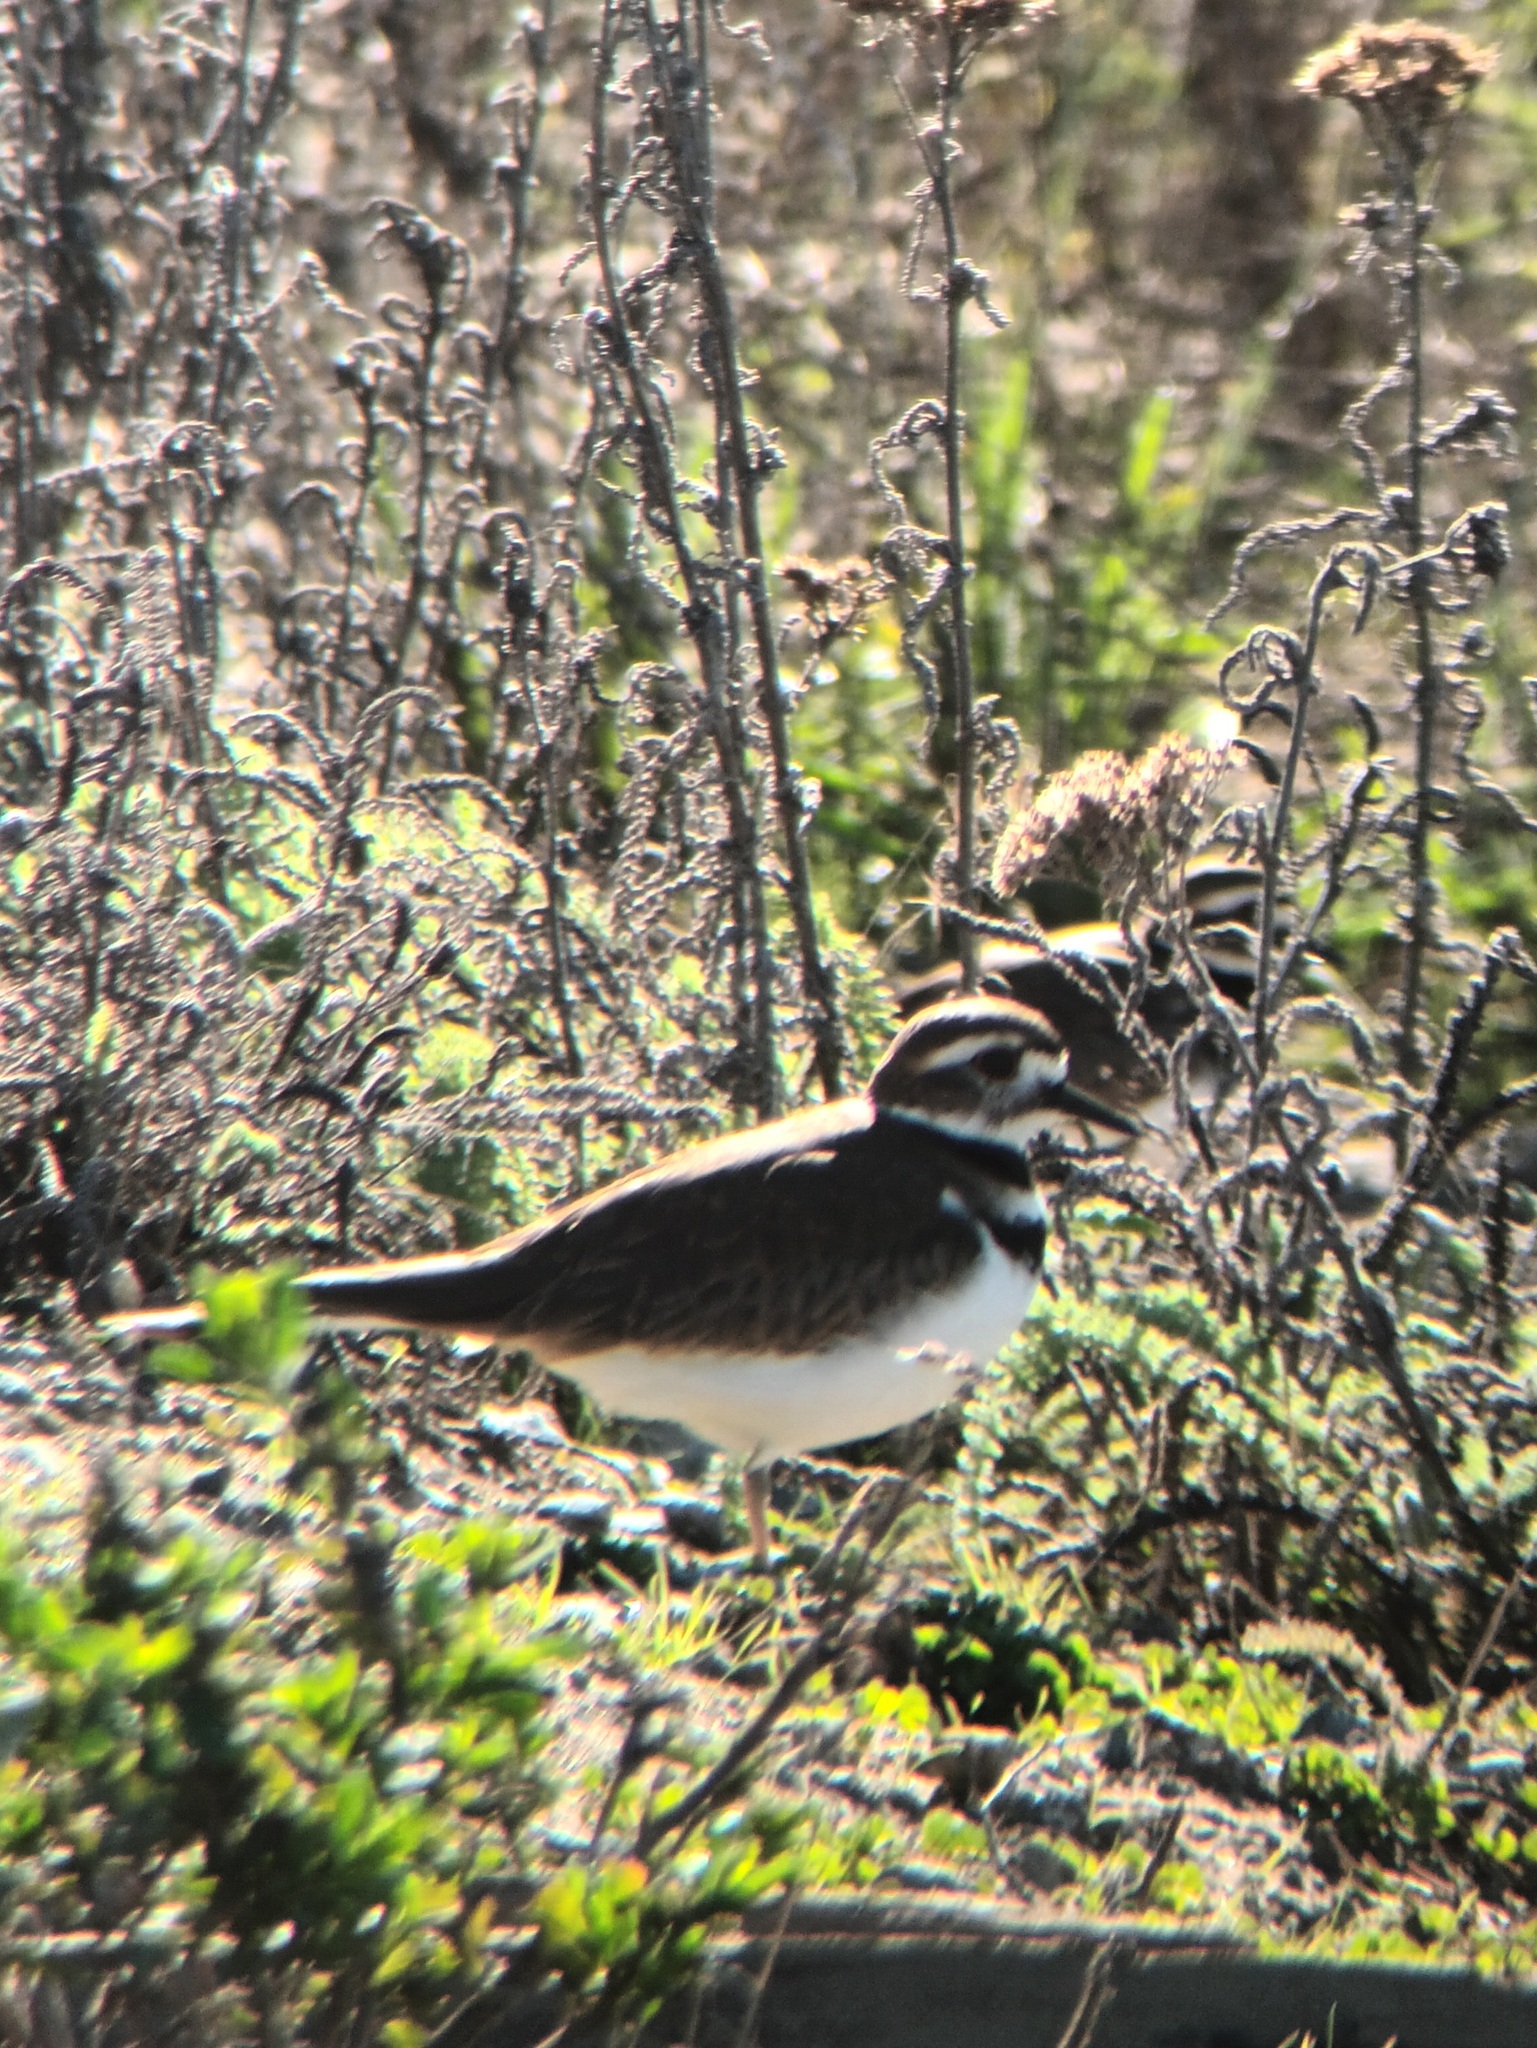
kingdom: Animalia
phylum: Chordata
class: Aves
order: Charadriiformes
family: Charadriidae
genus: Charadrius
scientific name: Charadrius vociferus
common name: Killdeer
